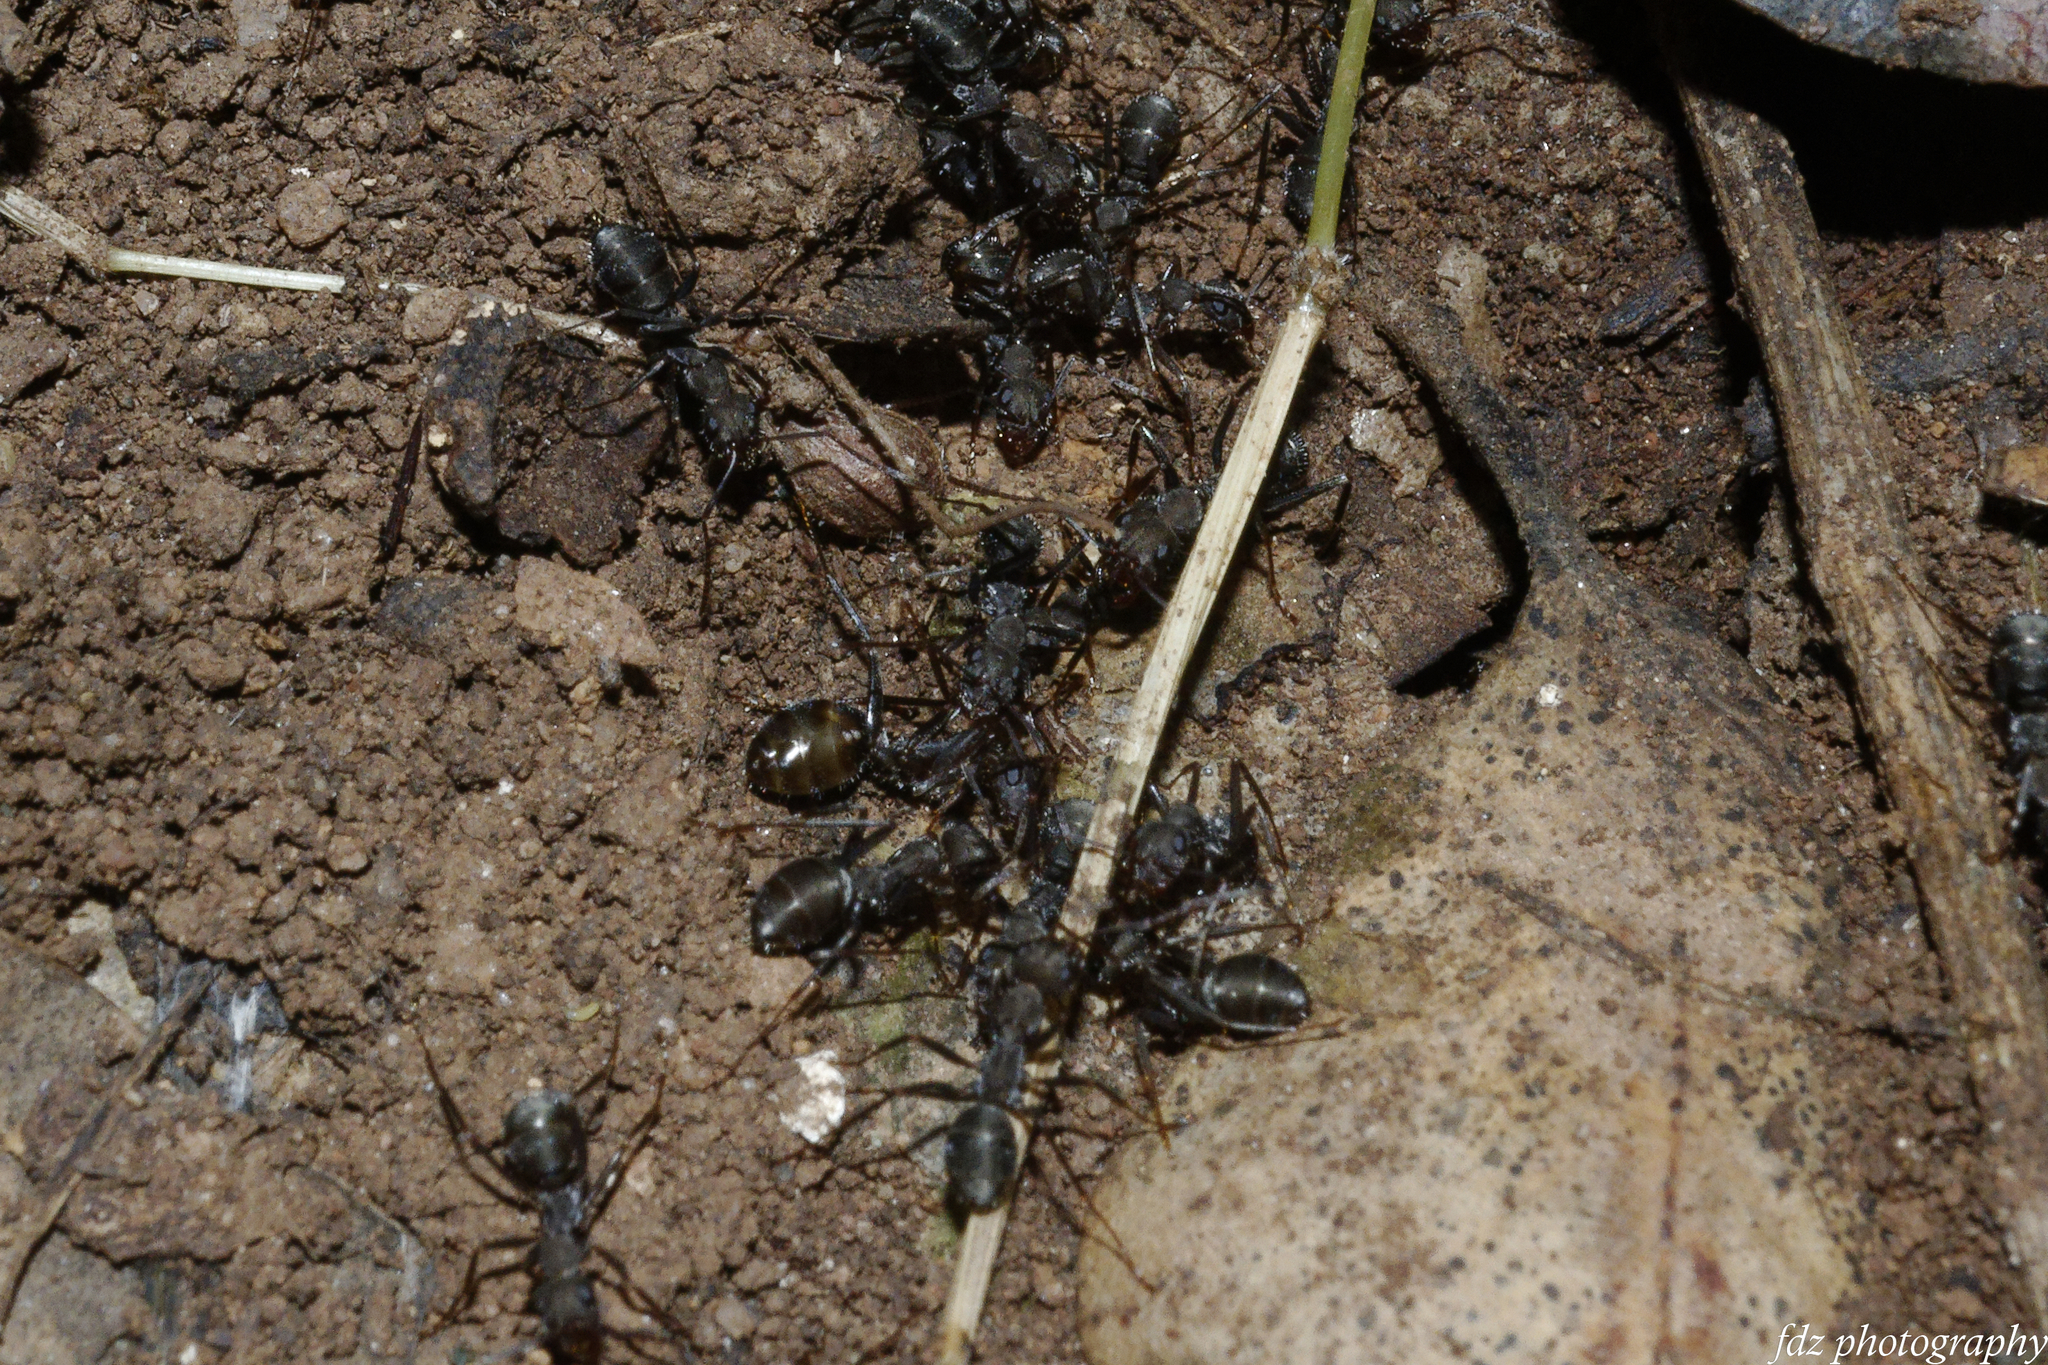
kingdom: Animalia
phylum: Arthropoda
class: Insecta
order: Hymenoptera
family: Formicidae
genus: Formica
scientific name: Formica subrufa
